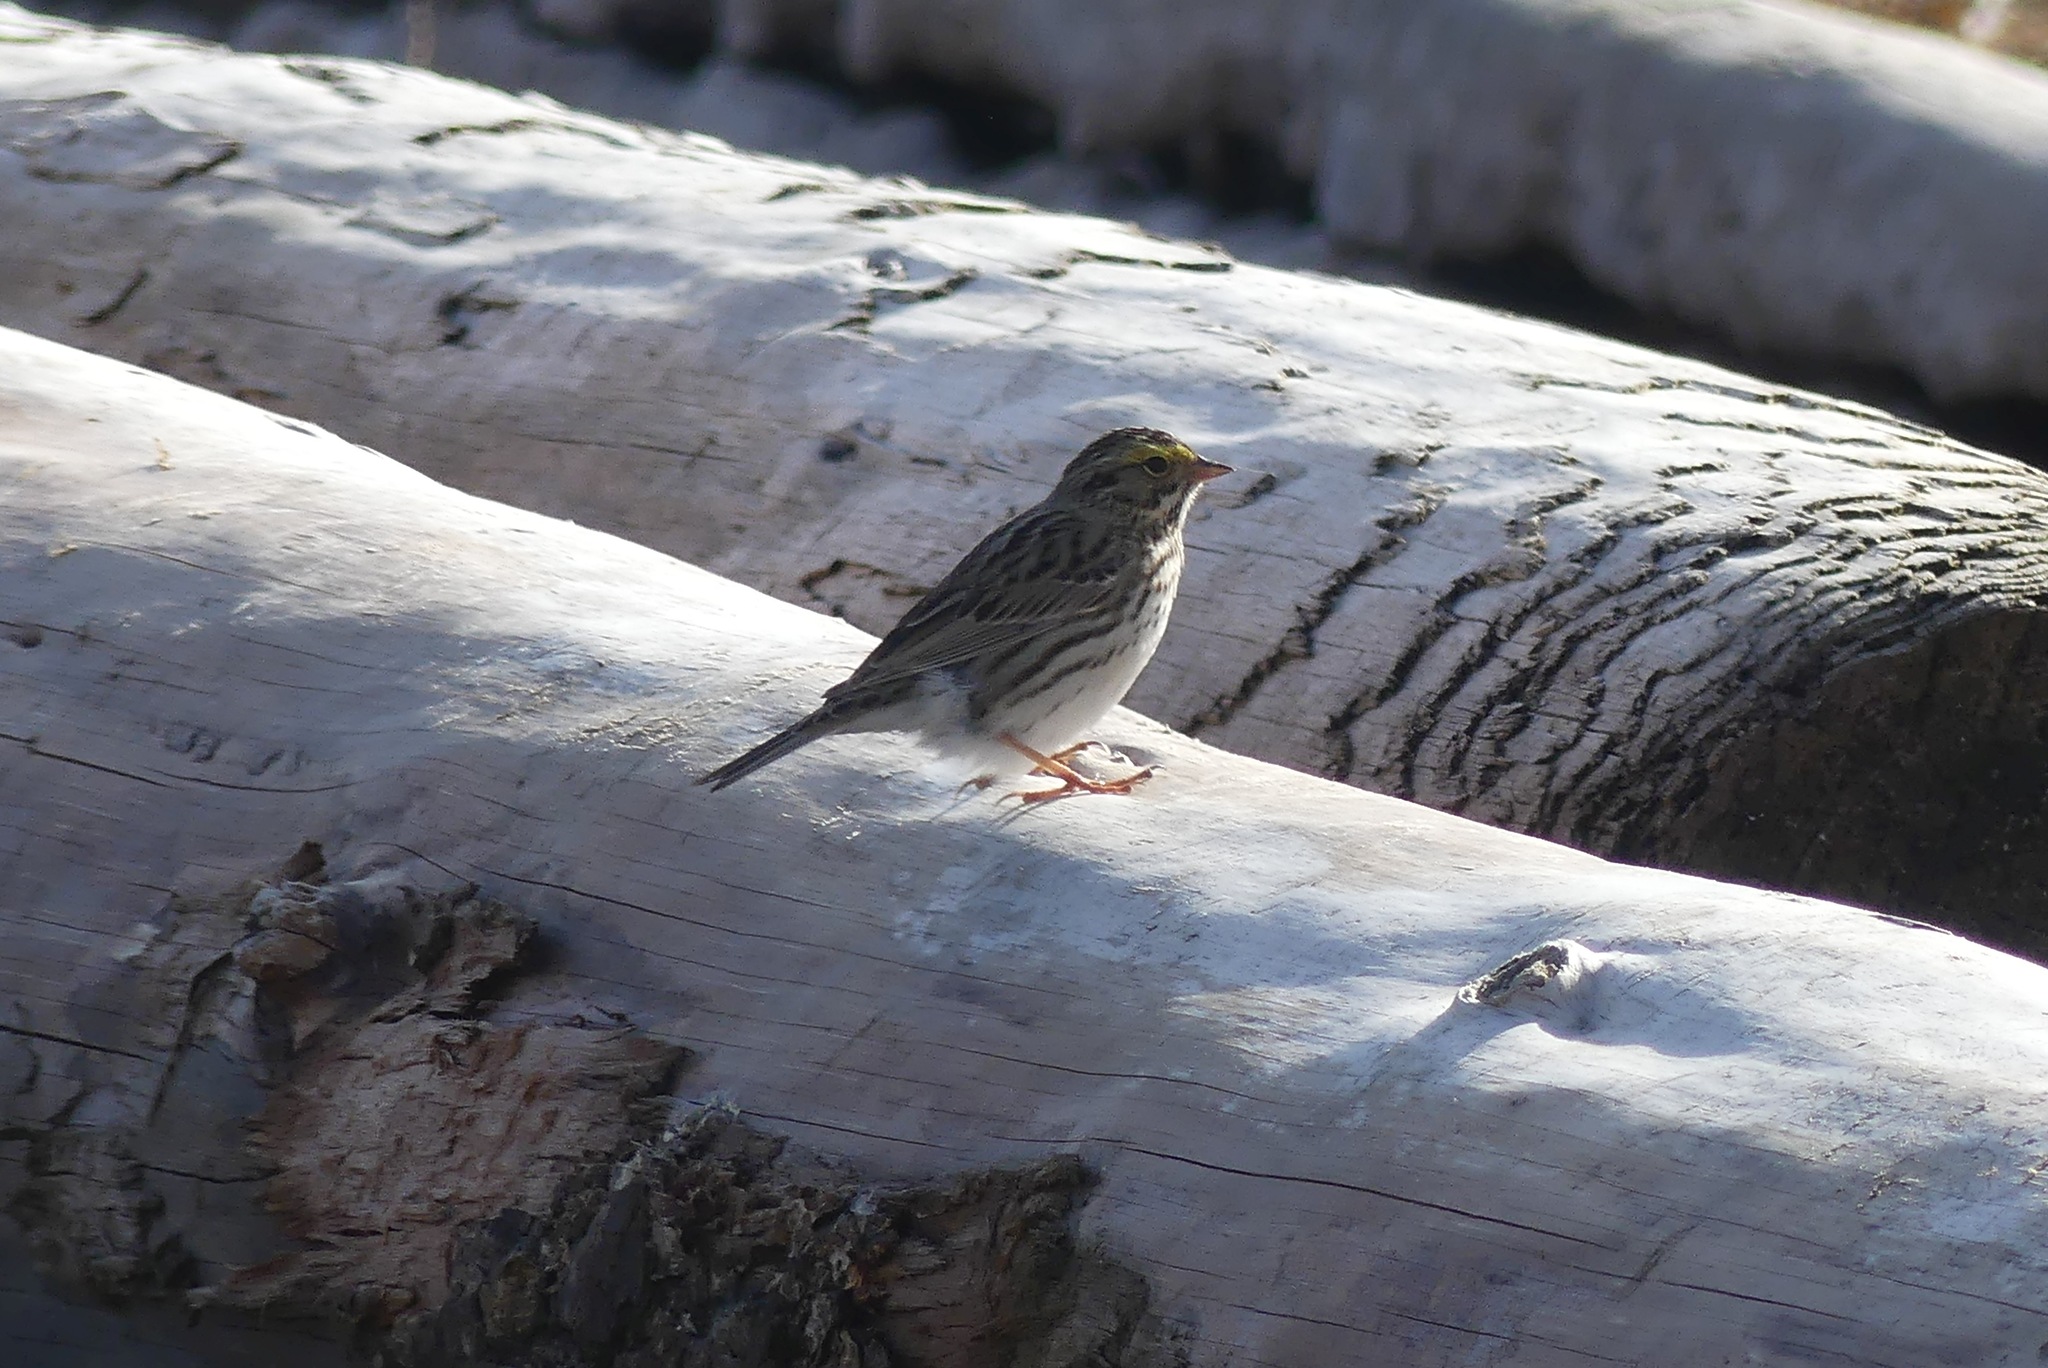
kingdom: Animalia
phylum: Chordata
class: Aves
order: Passeriformes
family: Passerellidae
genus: Passerculus
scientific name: Passerculus sandwichensis
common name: Savannah sparrow
